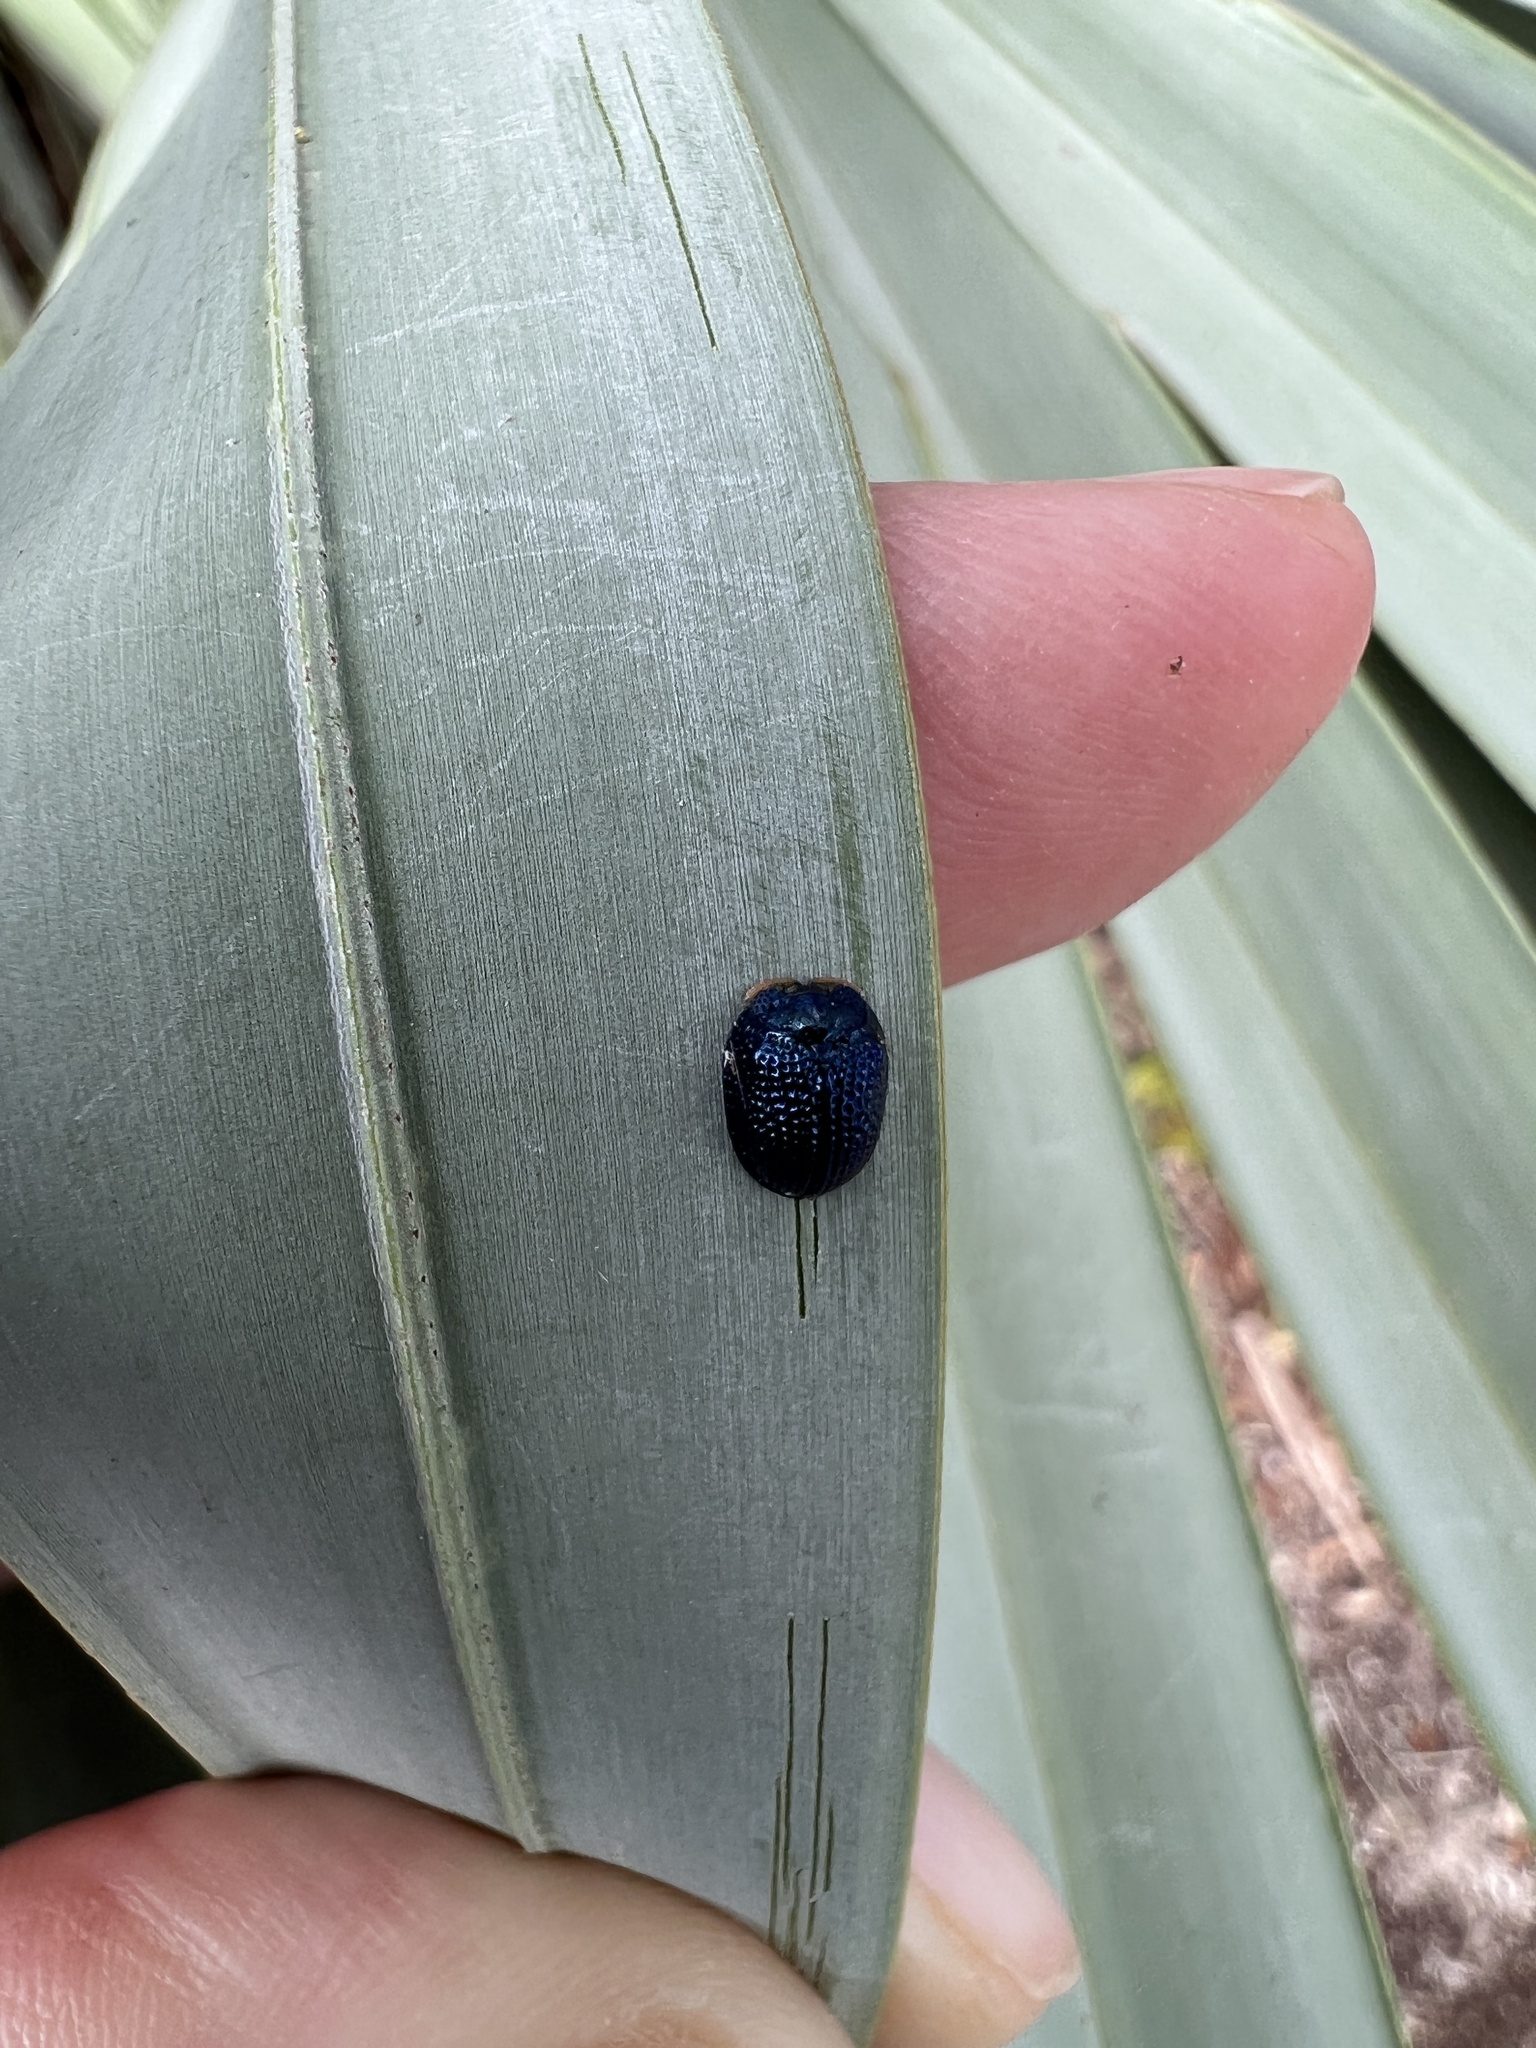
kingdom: Animalia
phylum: Arthropoda
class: Insecta
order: Coleoptera
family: Chrysomelidae
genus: Hemisphaerota
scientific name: Hemisphaerota cyanea
